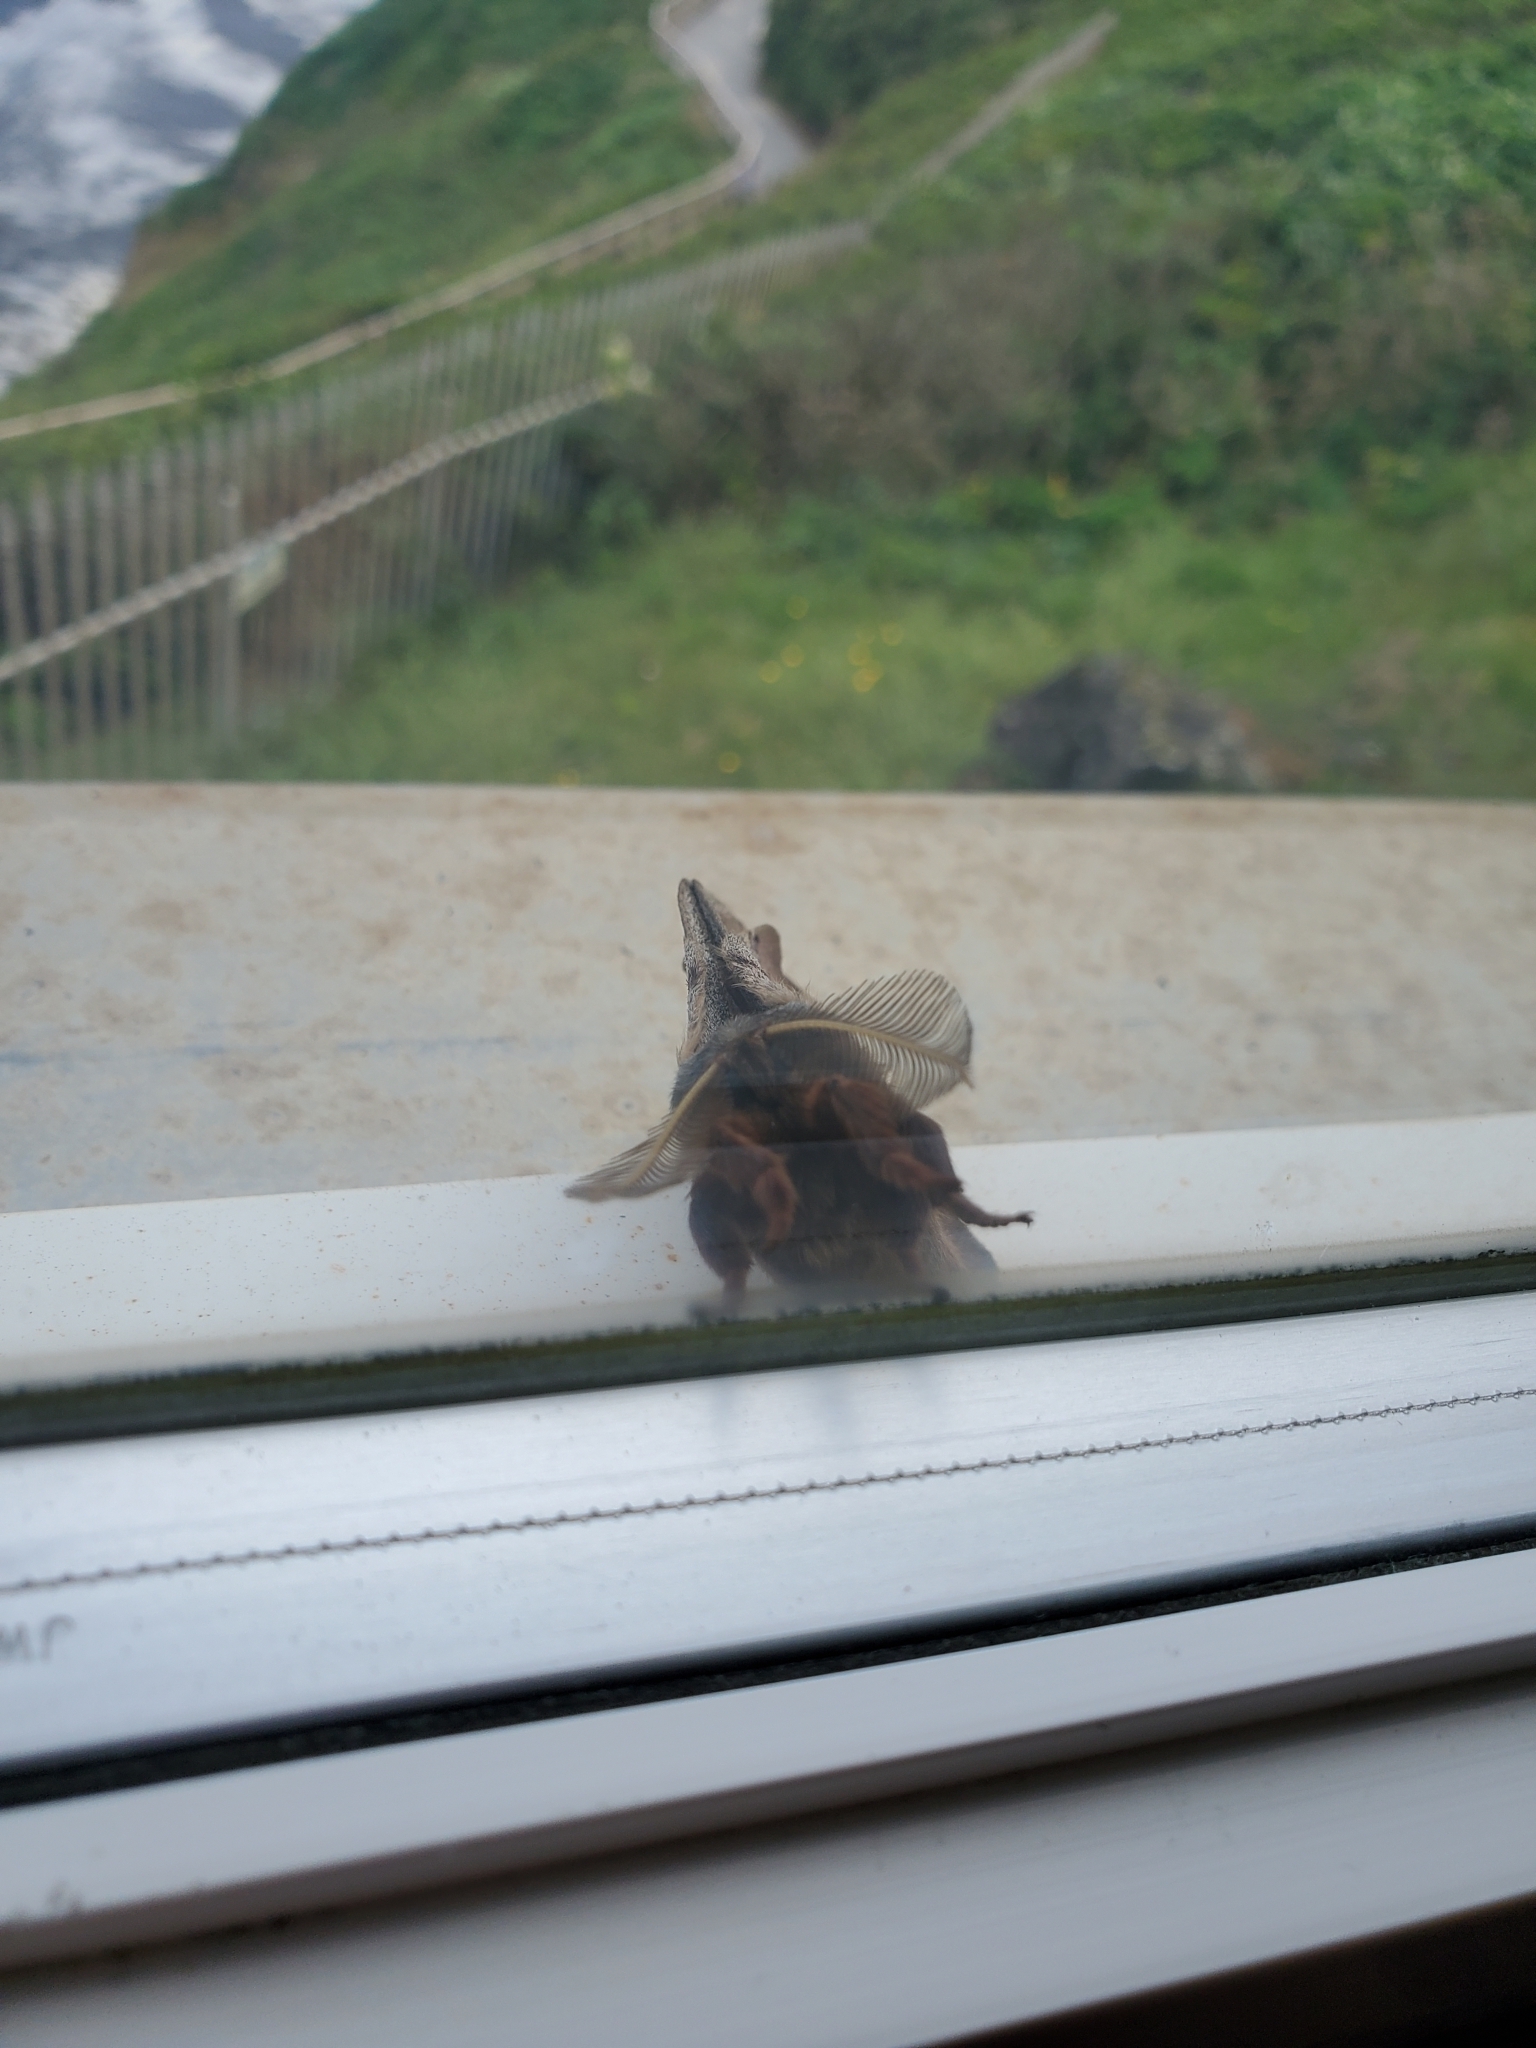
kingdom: Animalia
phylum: Arthropoda
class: Insecta
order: Lepidoptera
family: Saturniidae
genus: Antheraea
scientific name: Antheraea polyphemus
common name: Polyphemus moth
